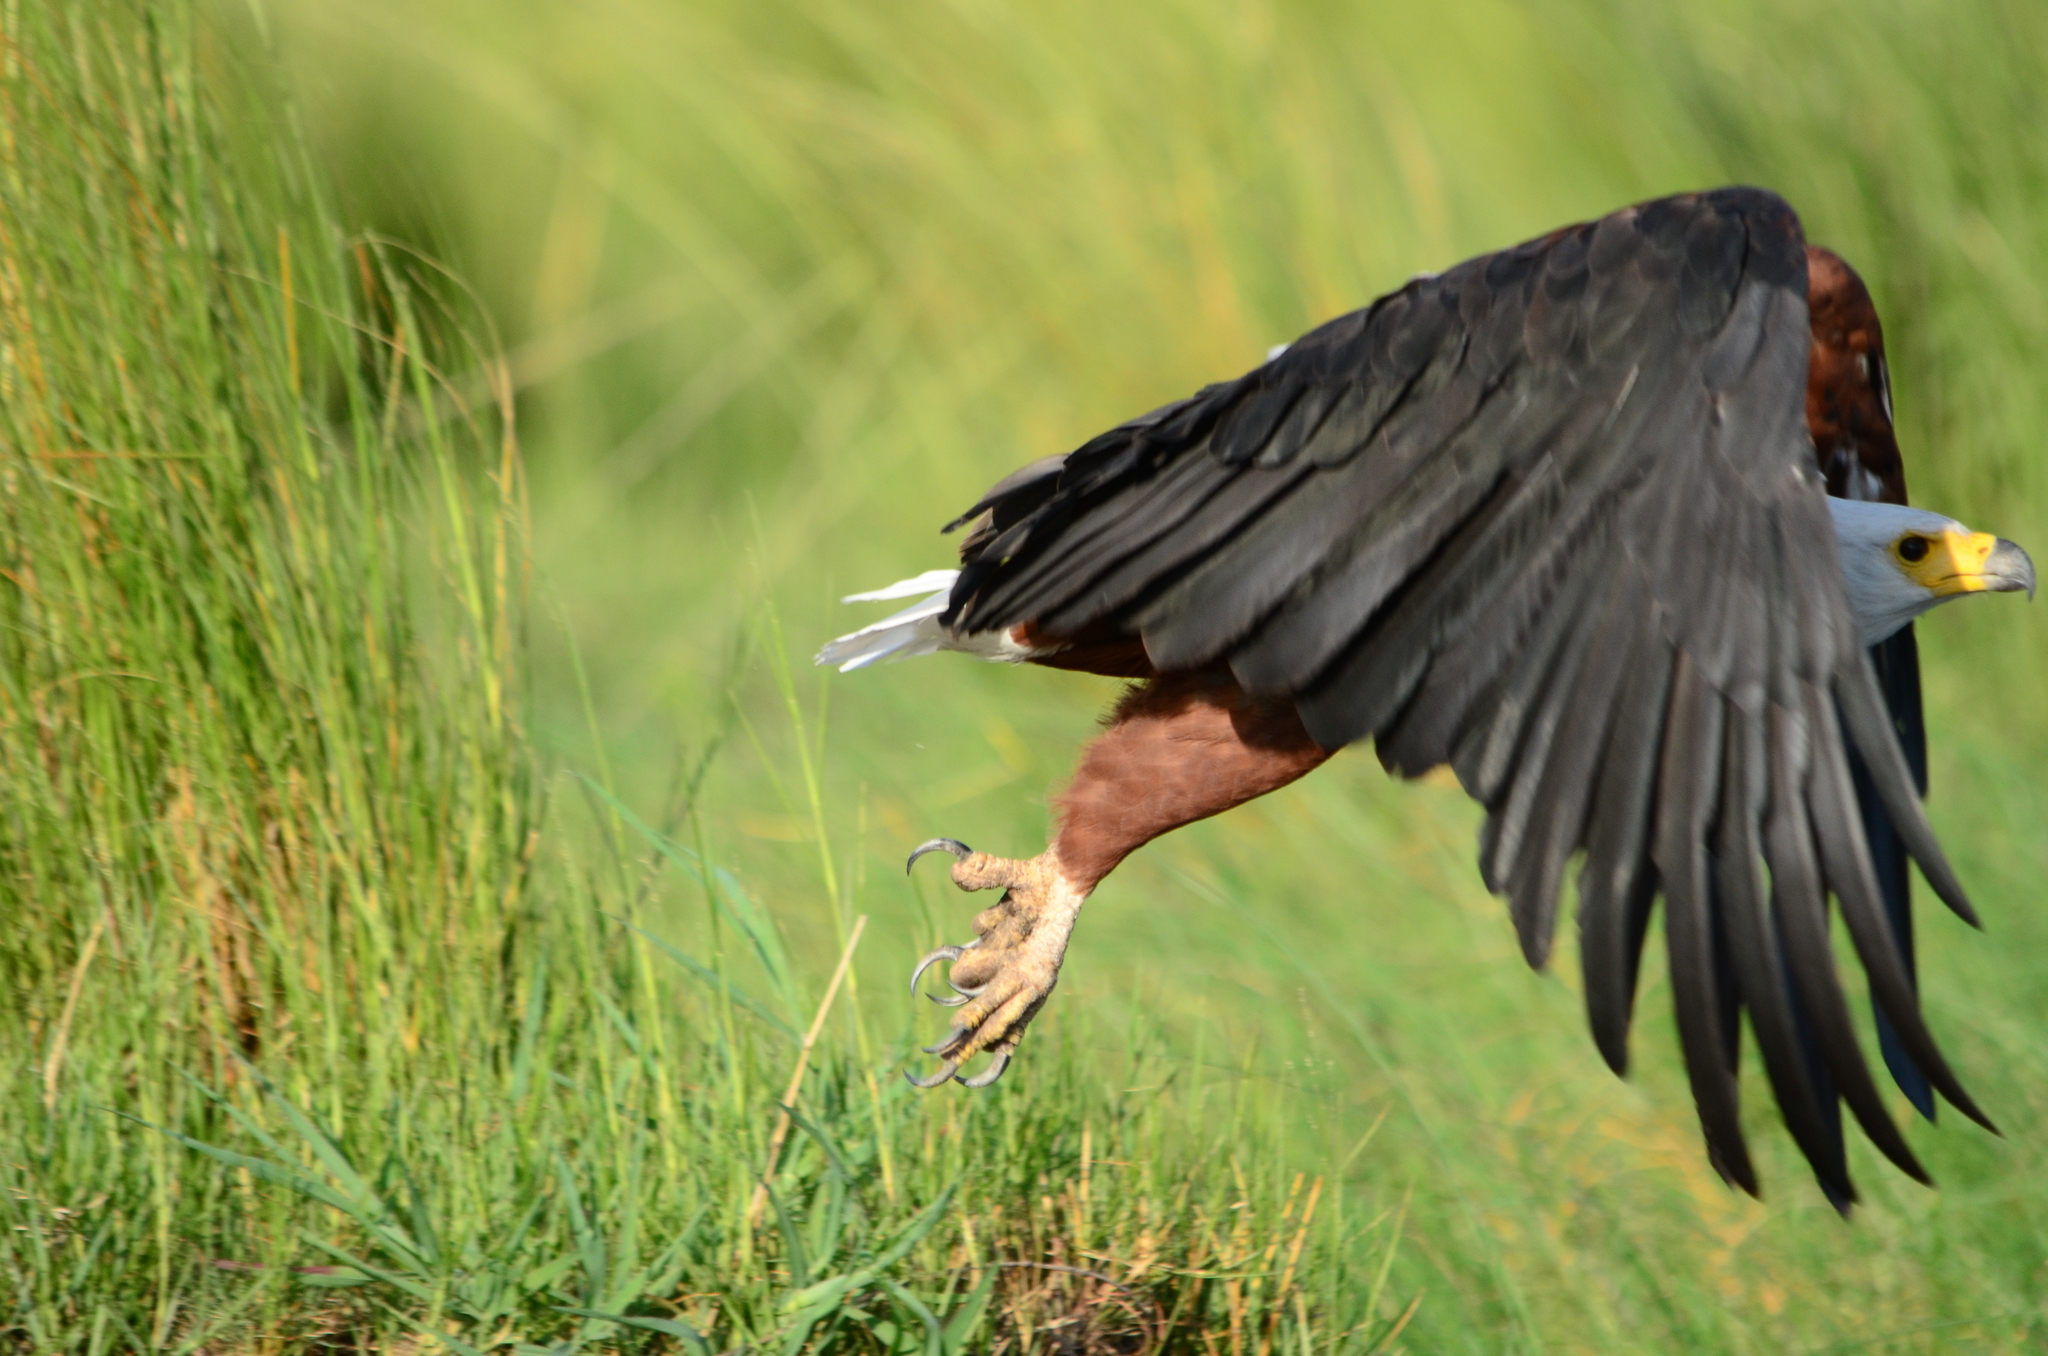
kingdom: Animalia
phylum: Chordata
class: Aves
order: Accipitriformes
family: Accipitridae
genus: Haliaeetus
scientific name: Haliaeetus vocifer
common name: African fish eagle
